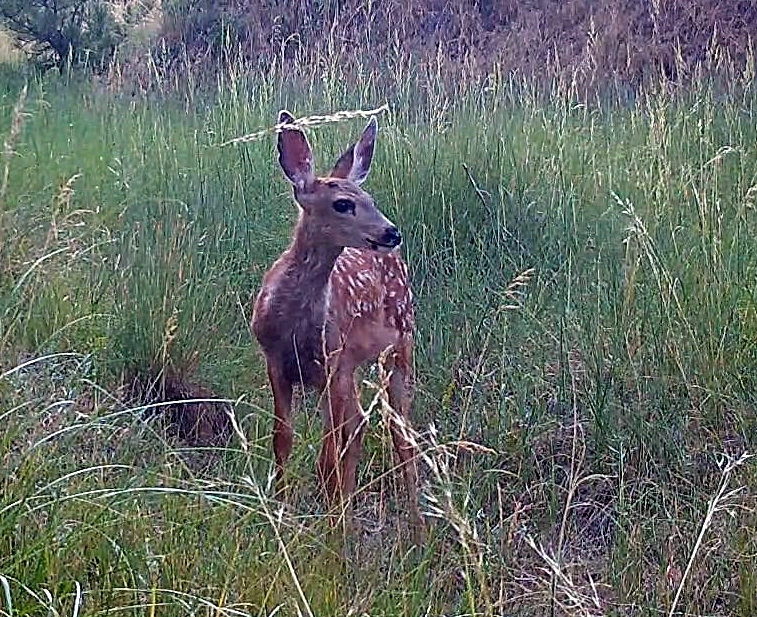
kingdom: Animalia
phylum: Chordata
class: Mammalia
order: Artiodactyla
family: Cervidae
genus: Odocoileus
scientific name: Odocoileus hemionus
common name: Mule deer
